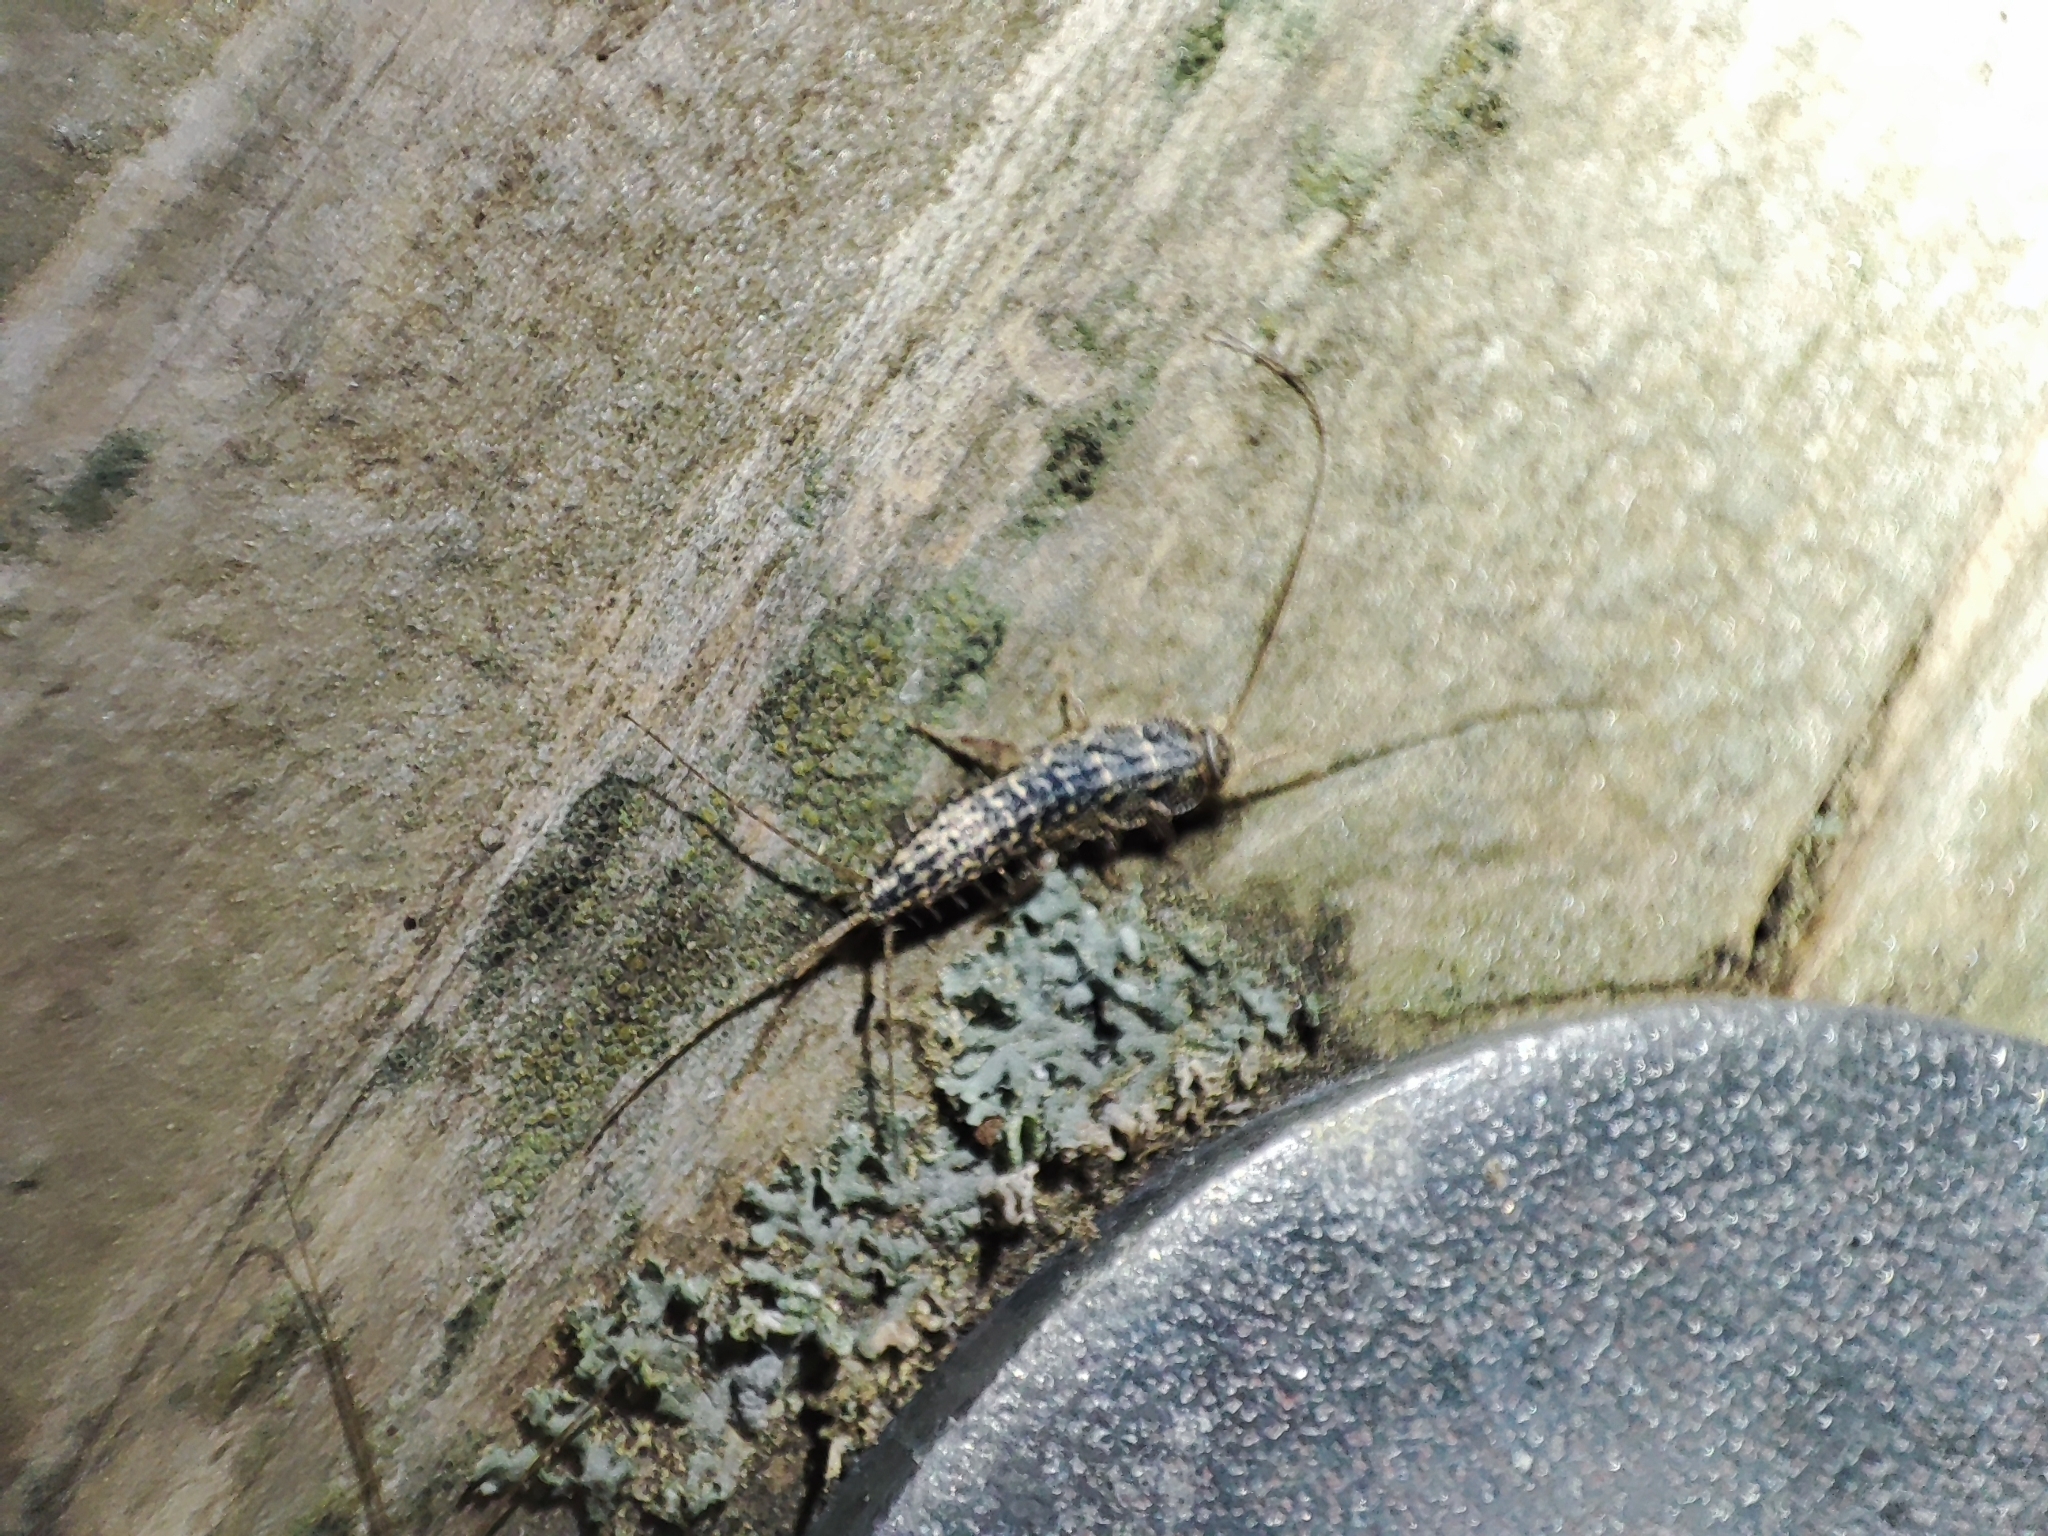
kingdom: Animalia
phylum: Arthropoda
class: Insecta
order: Zygentoma
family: Lepismatidae
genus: Ctenolepisma
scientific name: Ctenolepisma lineata
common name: Four-lined silverfish
